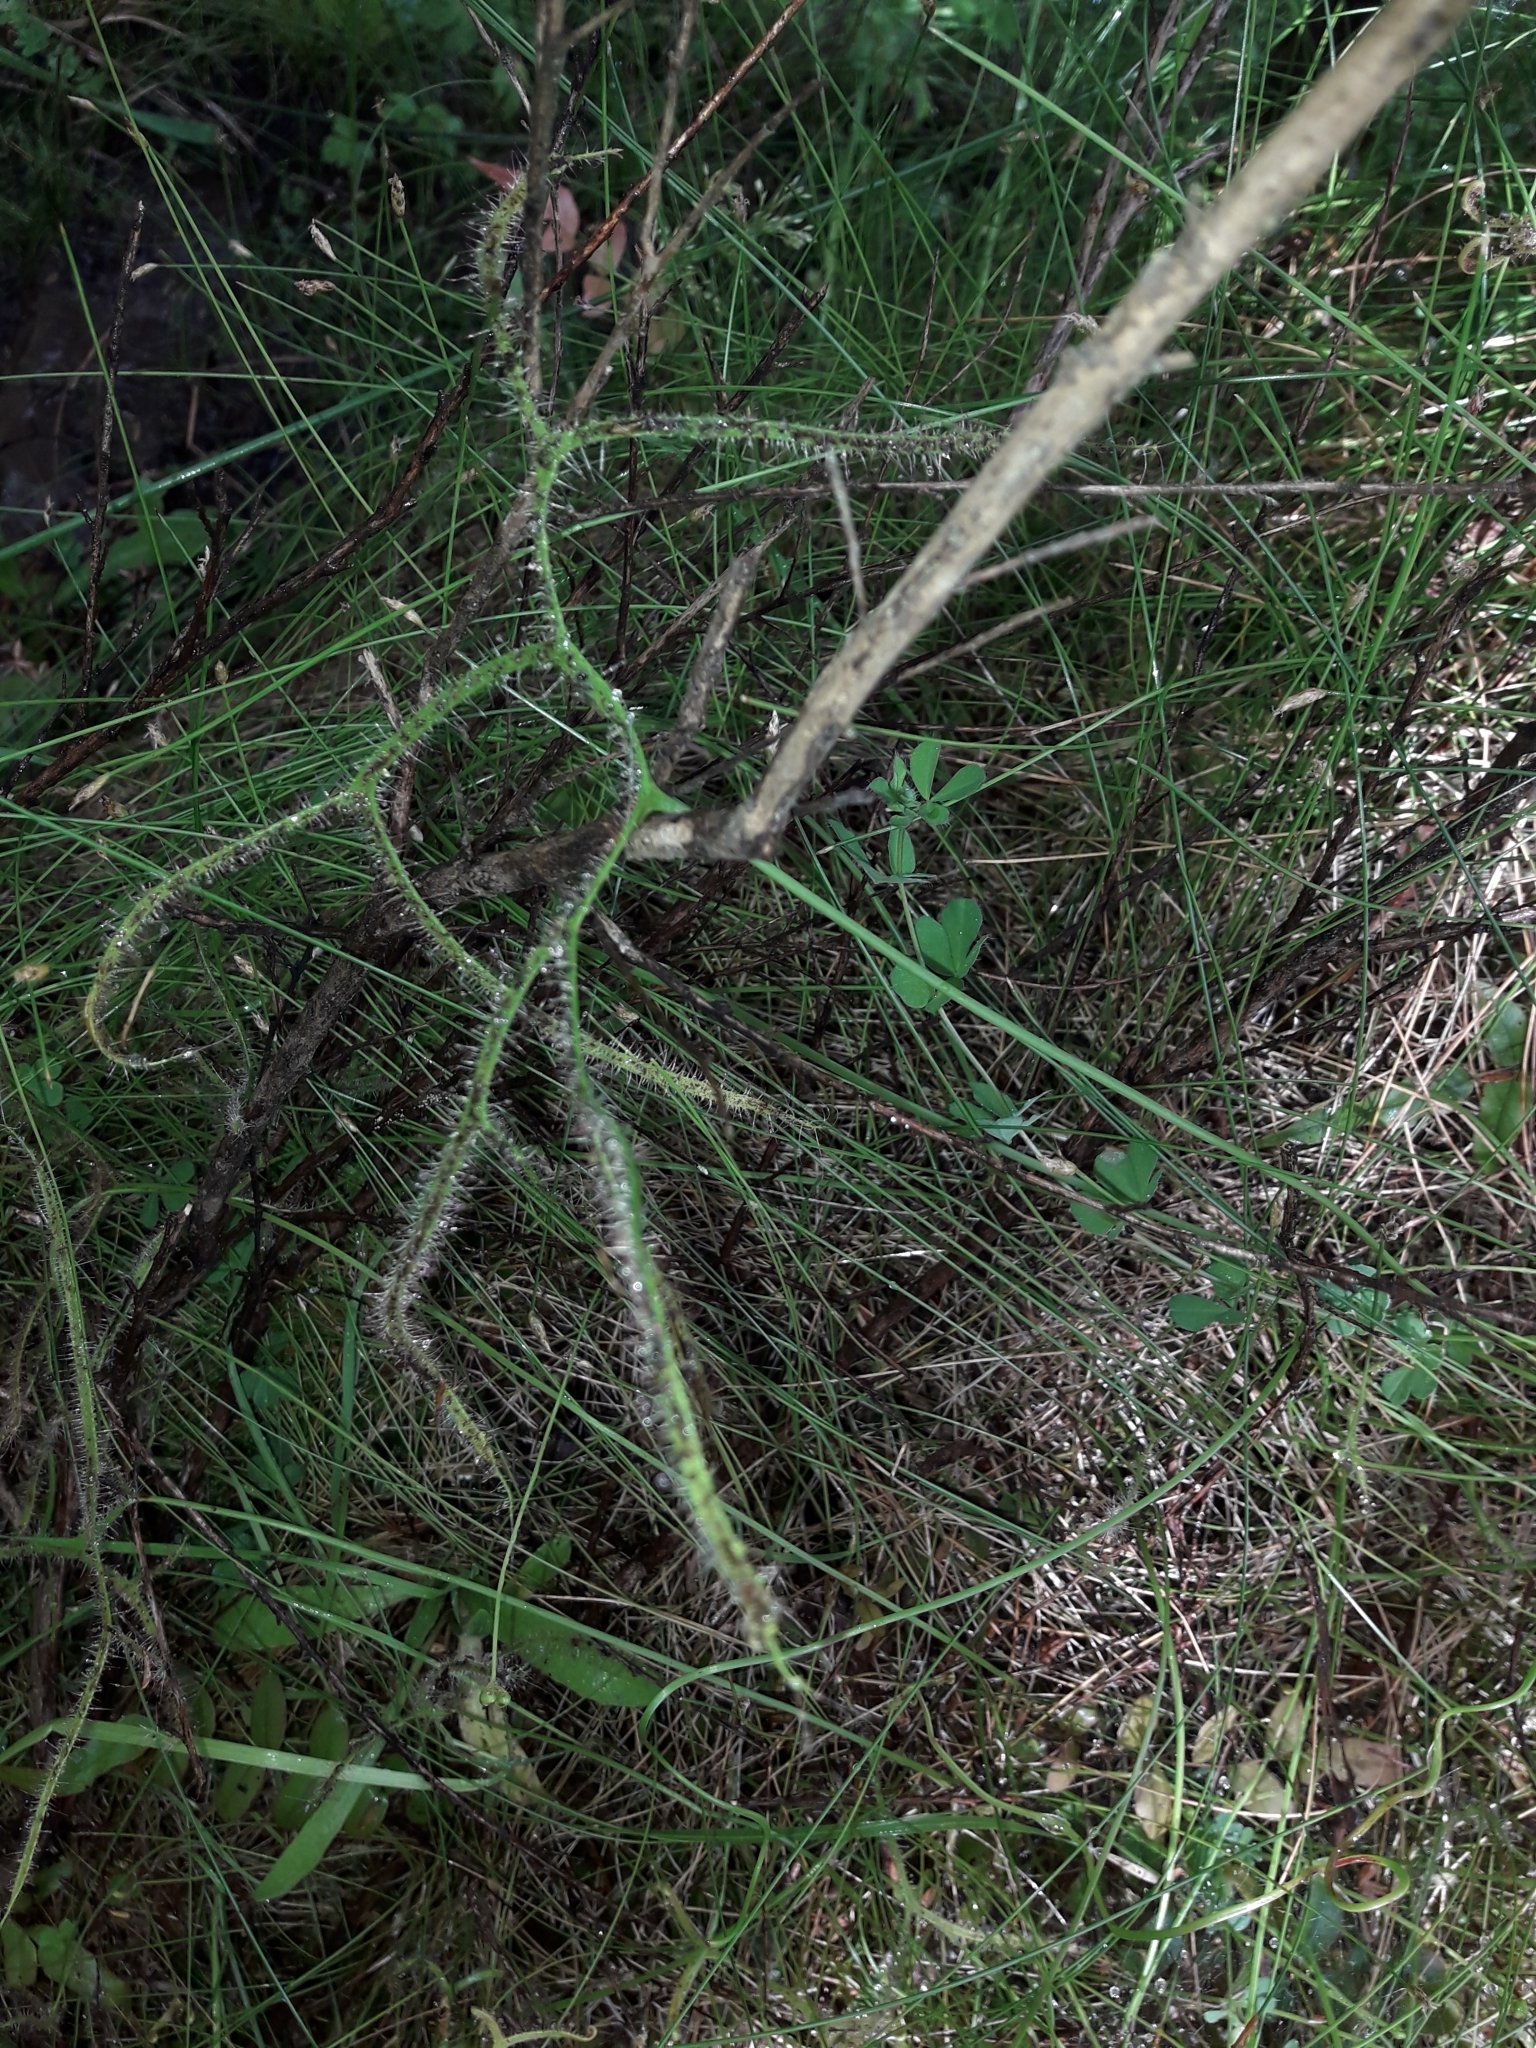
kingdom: Plantae
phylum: Tracheophyta
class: Magnoliopsida
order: Caryophyllales
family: Droseraceae
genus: Drosera
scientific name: Drosera binata
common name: Forked sundew
